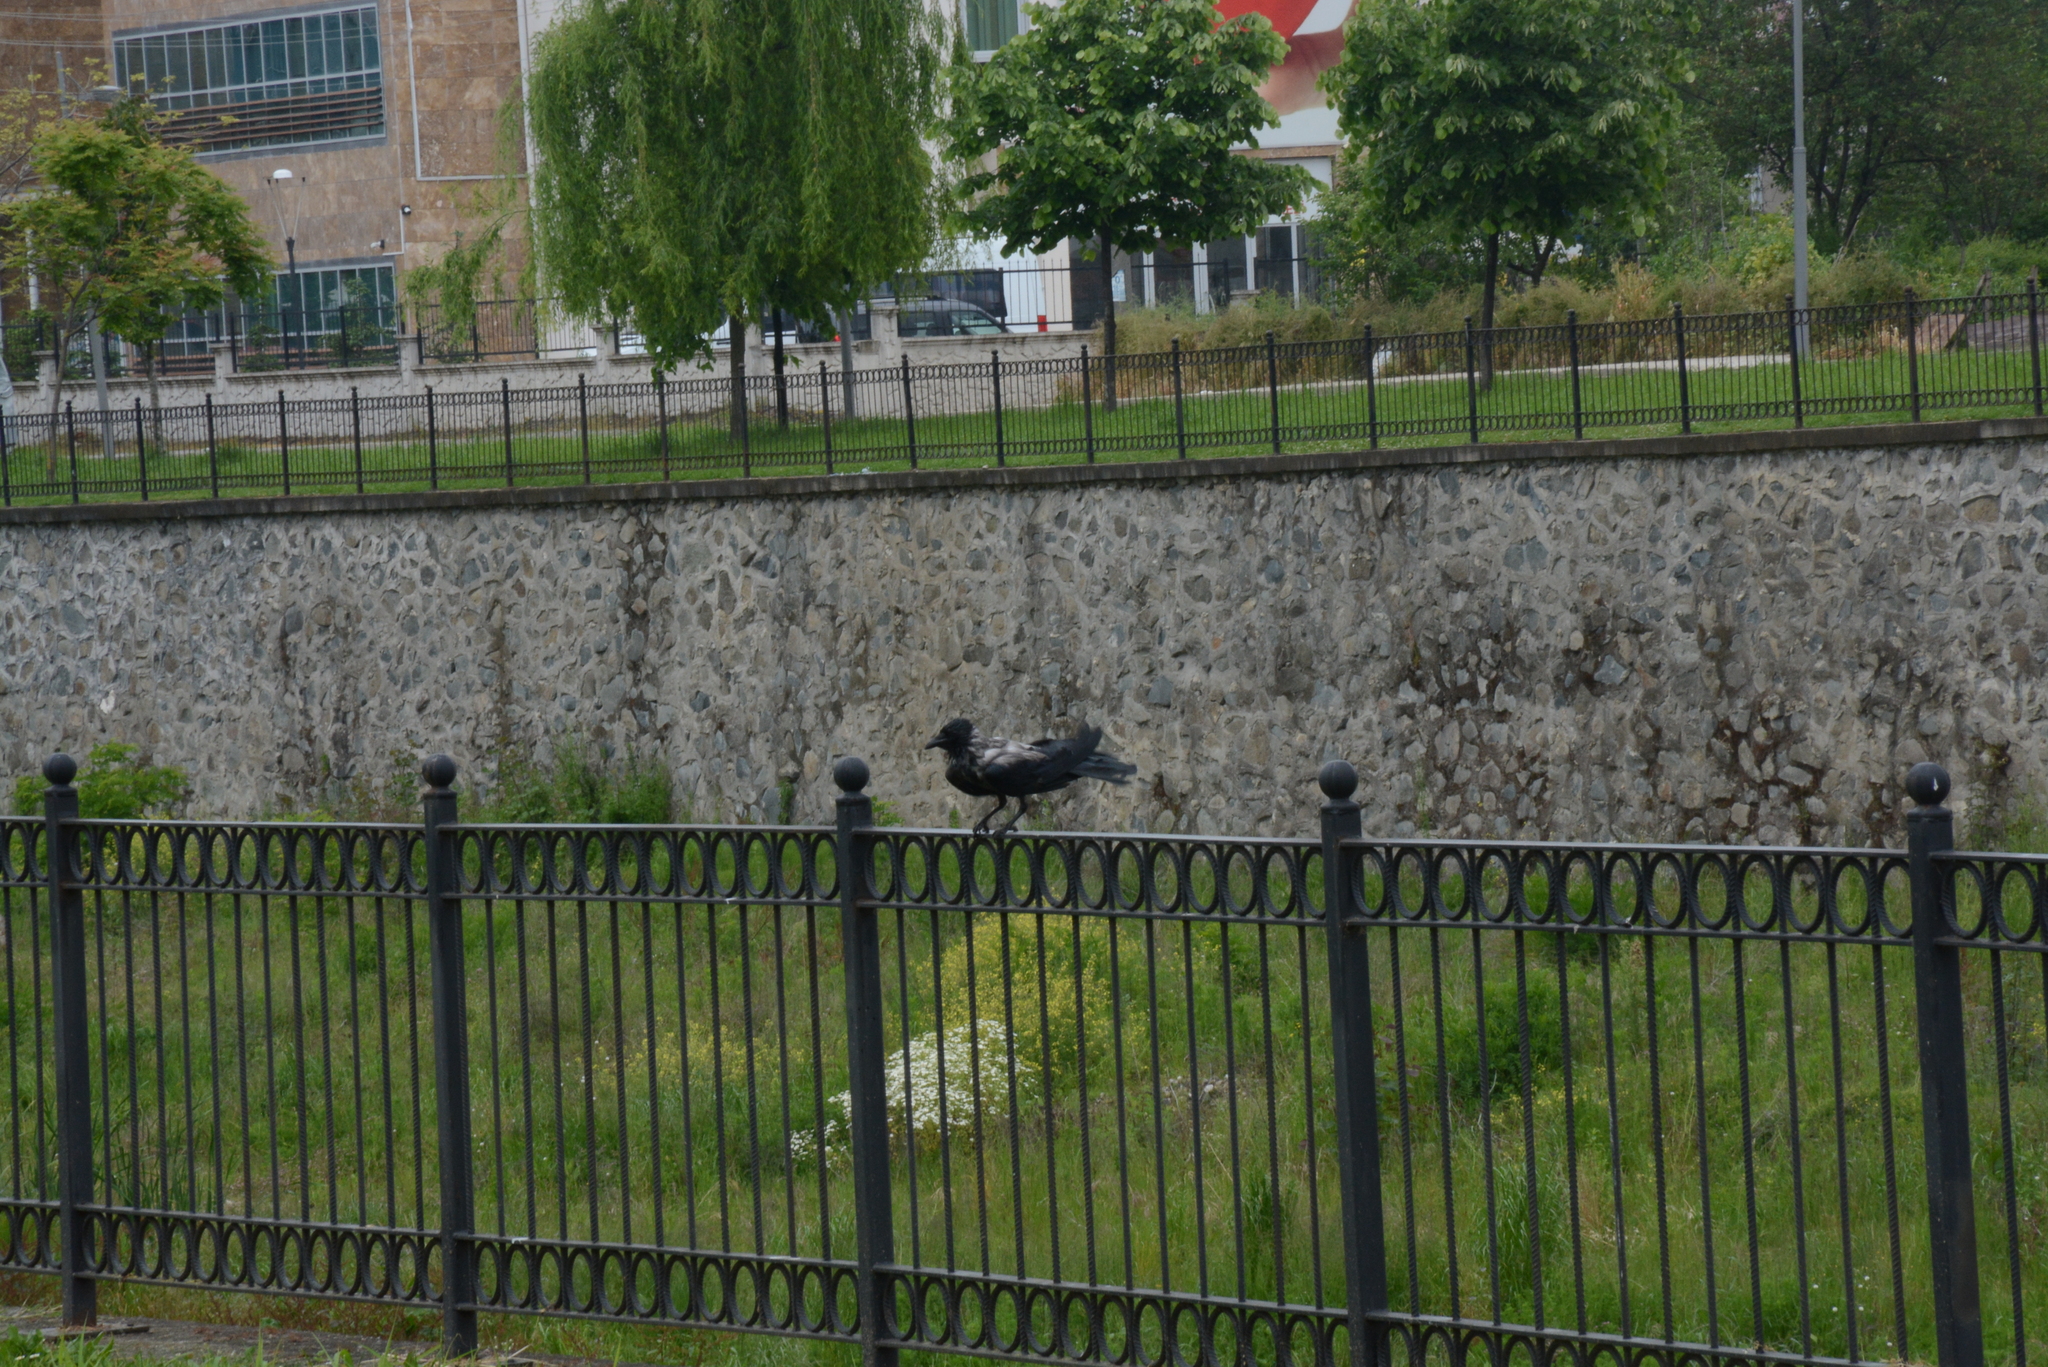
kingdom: Animalia
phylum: Chordata
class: Aves
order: Passeriformes
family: Corvidae
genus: Corvus
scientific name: Corvus cornix
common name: Hooded crow
